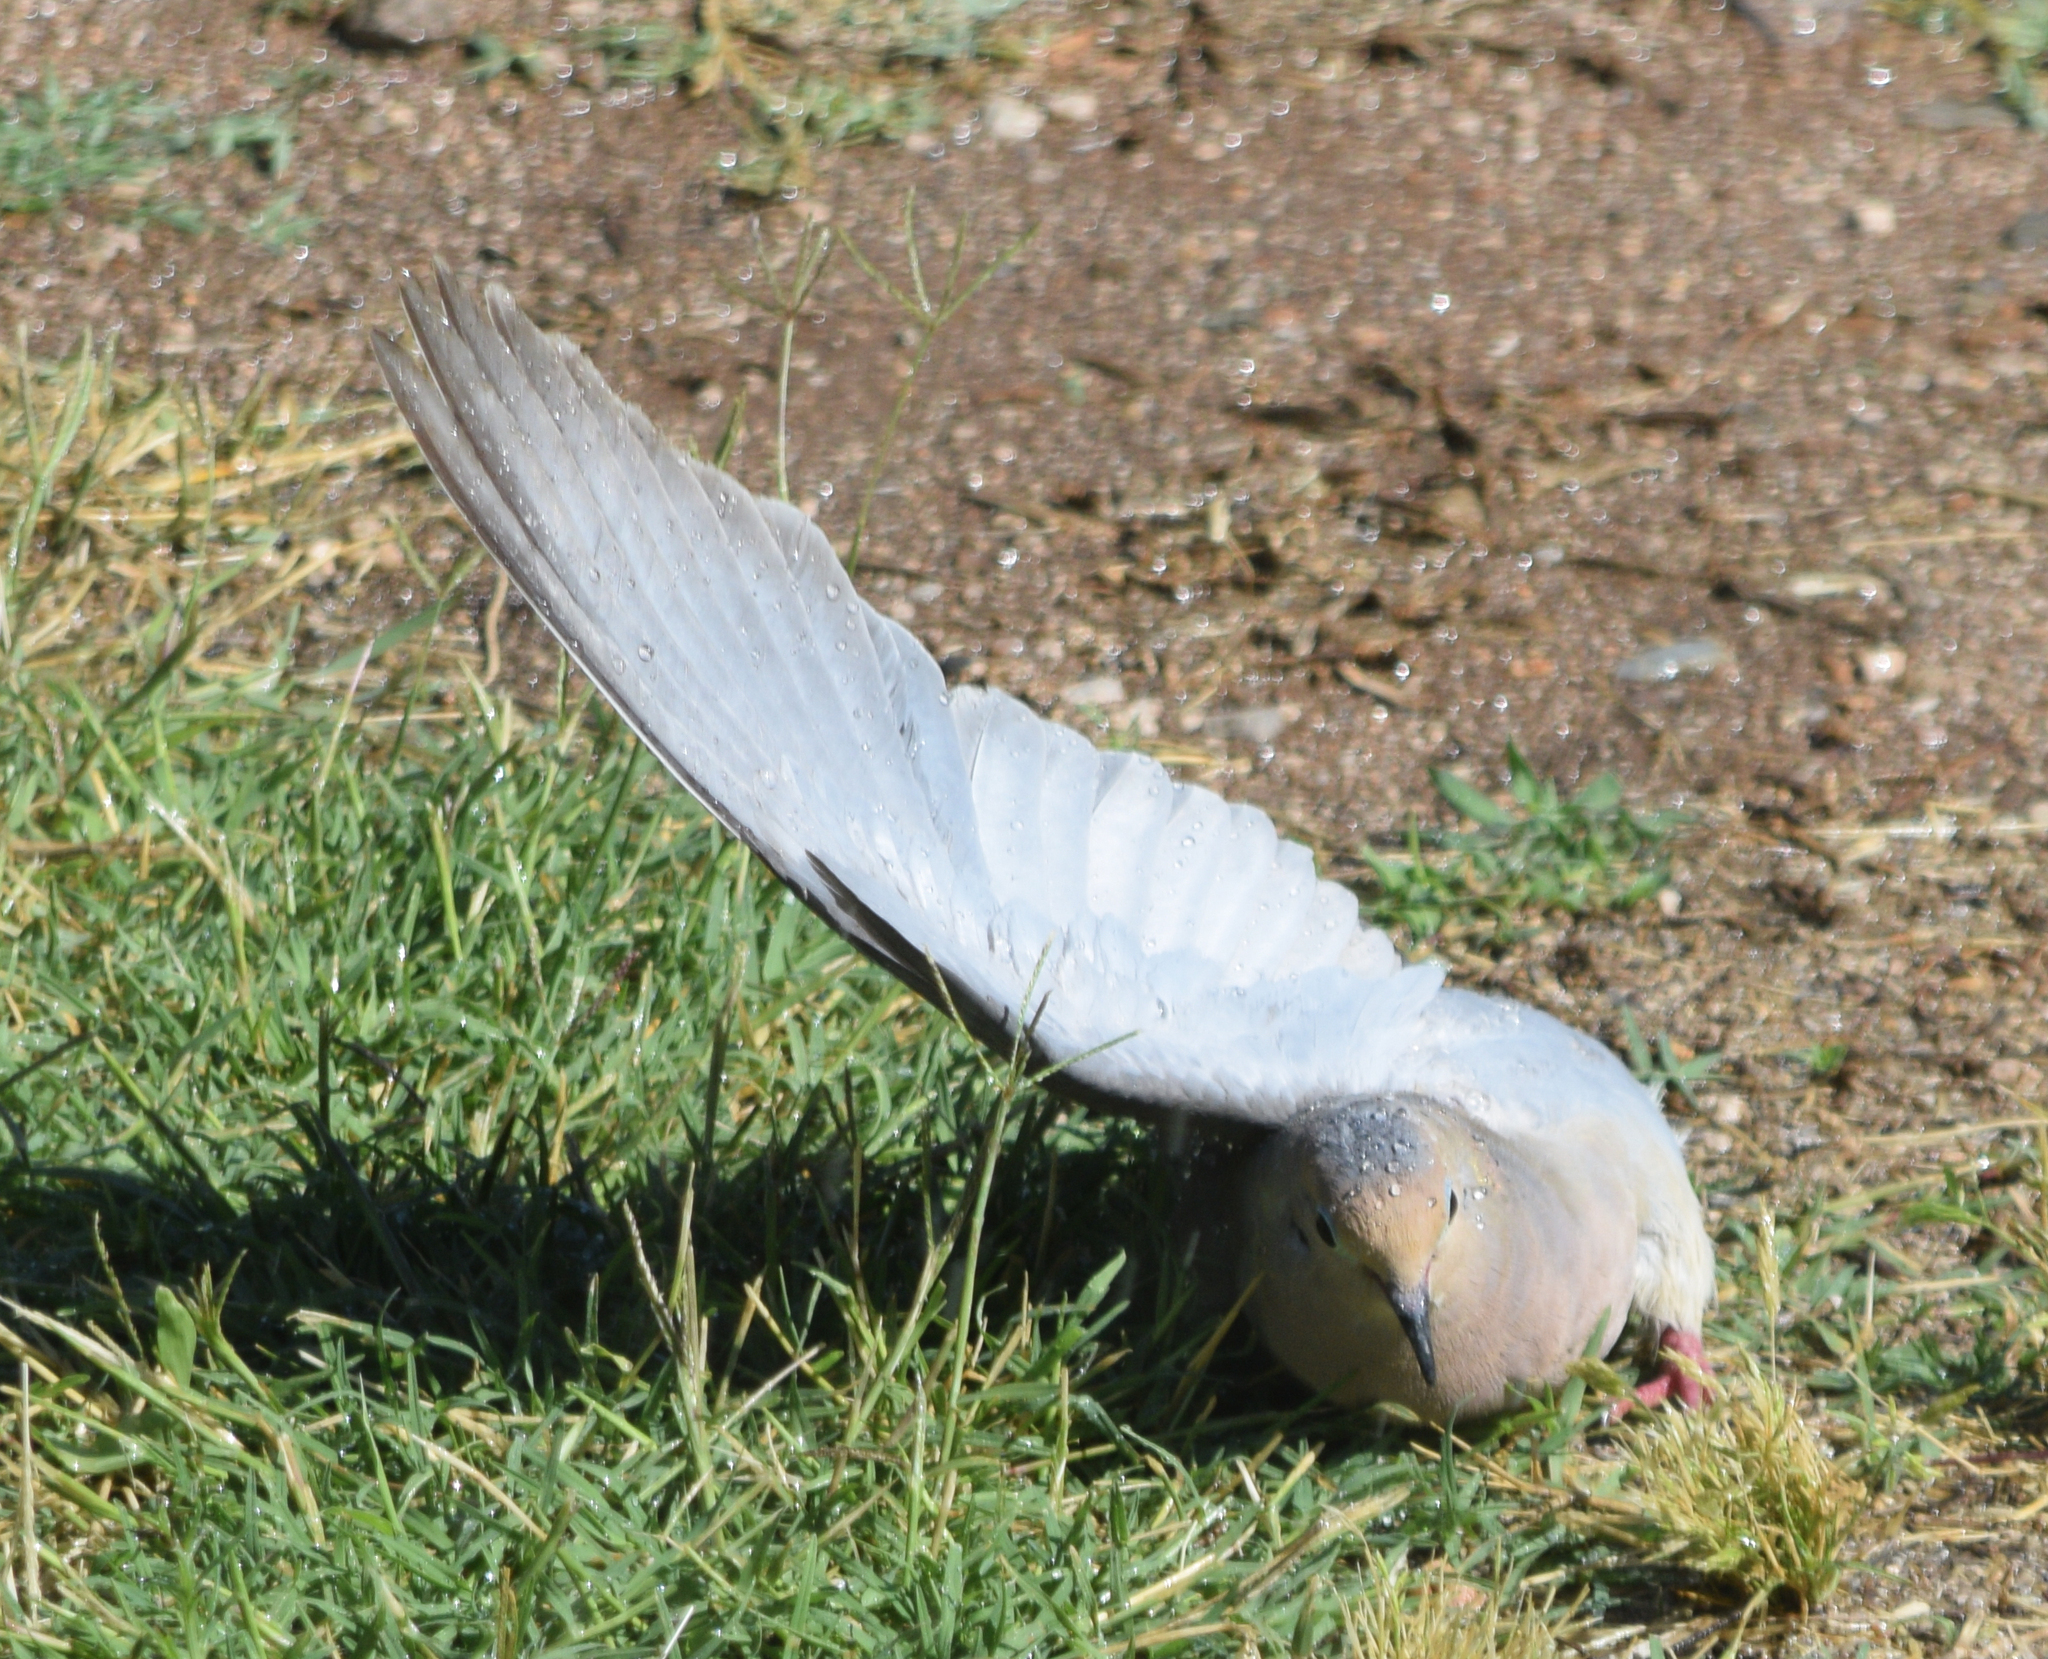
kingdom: Animalia
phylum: Chordata
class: Aves
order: Columbiformes
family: Columbidae
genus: Zenaida
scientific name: Zenaida macroura
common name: Mourning dove
